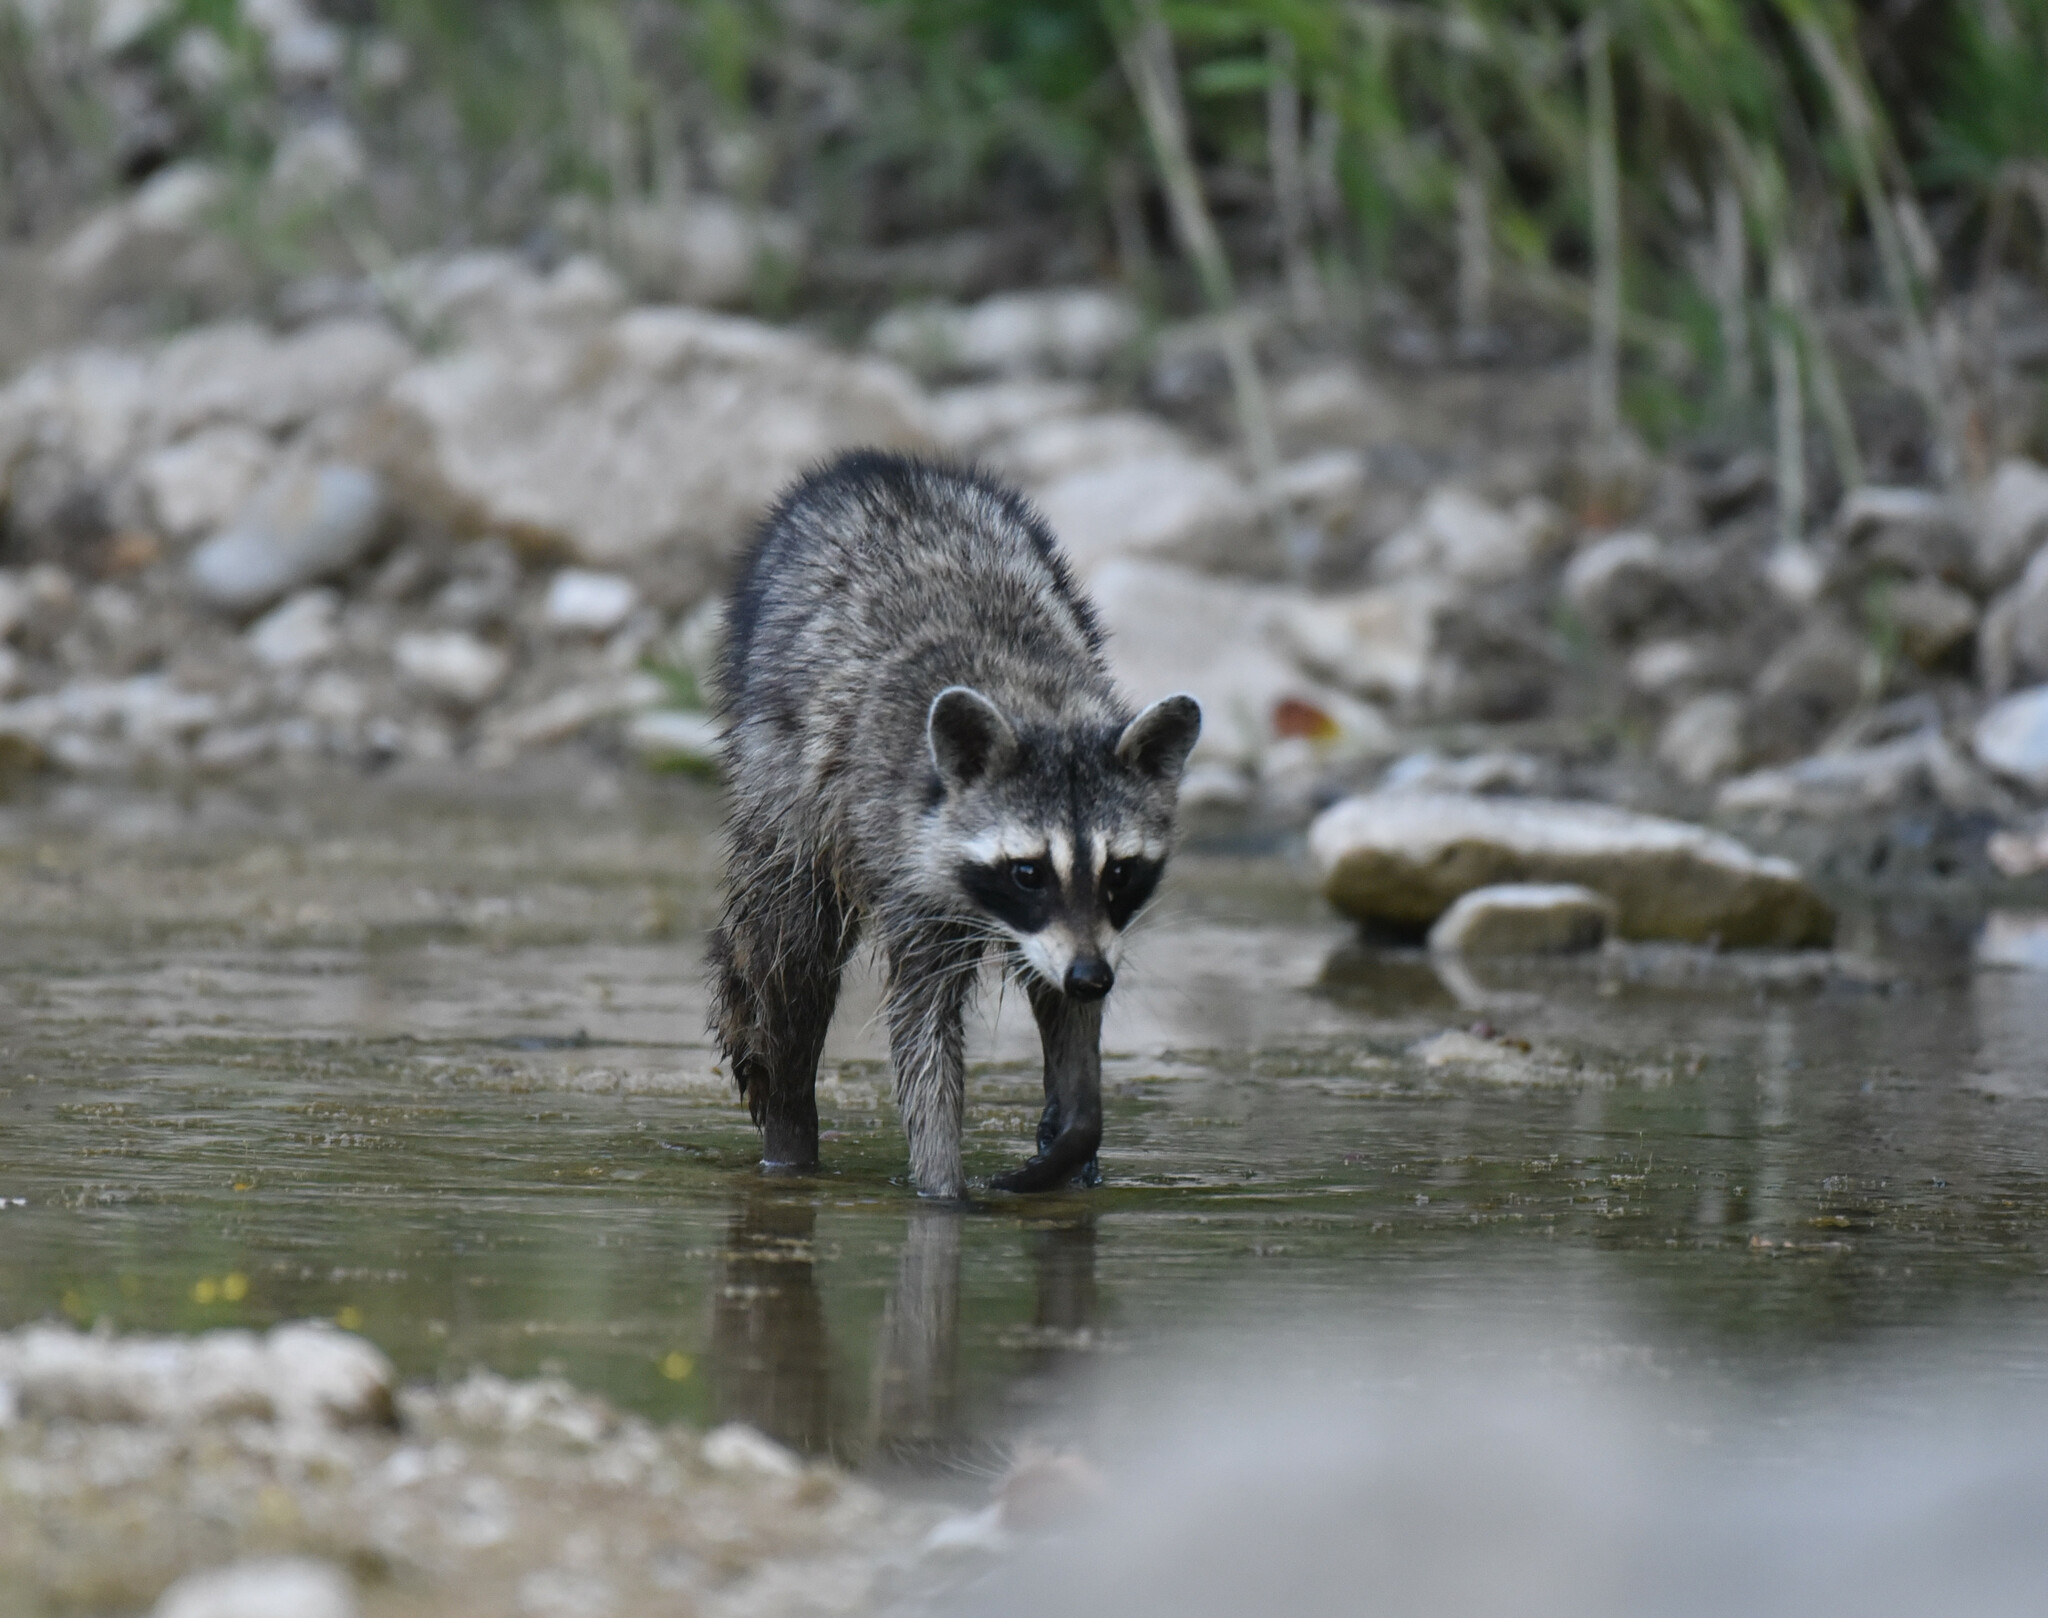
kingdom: Animalia
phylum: Chordata
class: Mammalia
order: Carnivora
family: Procyonidae
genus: Procyon
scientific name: Procyon lotor
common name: Raccoon
